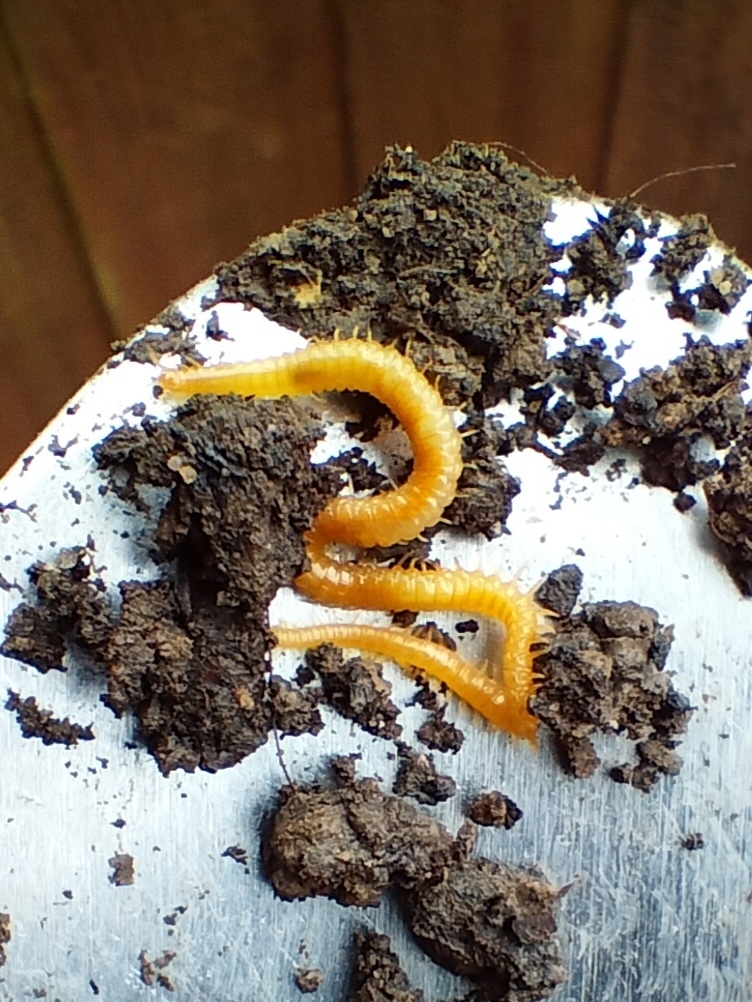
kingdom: Animalia
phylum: Arthropoda
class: Chilopoda
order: Geophilomorpha
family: Himantariidae
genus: Stigmatogaster
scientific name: Stigmatogaster subterranea
